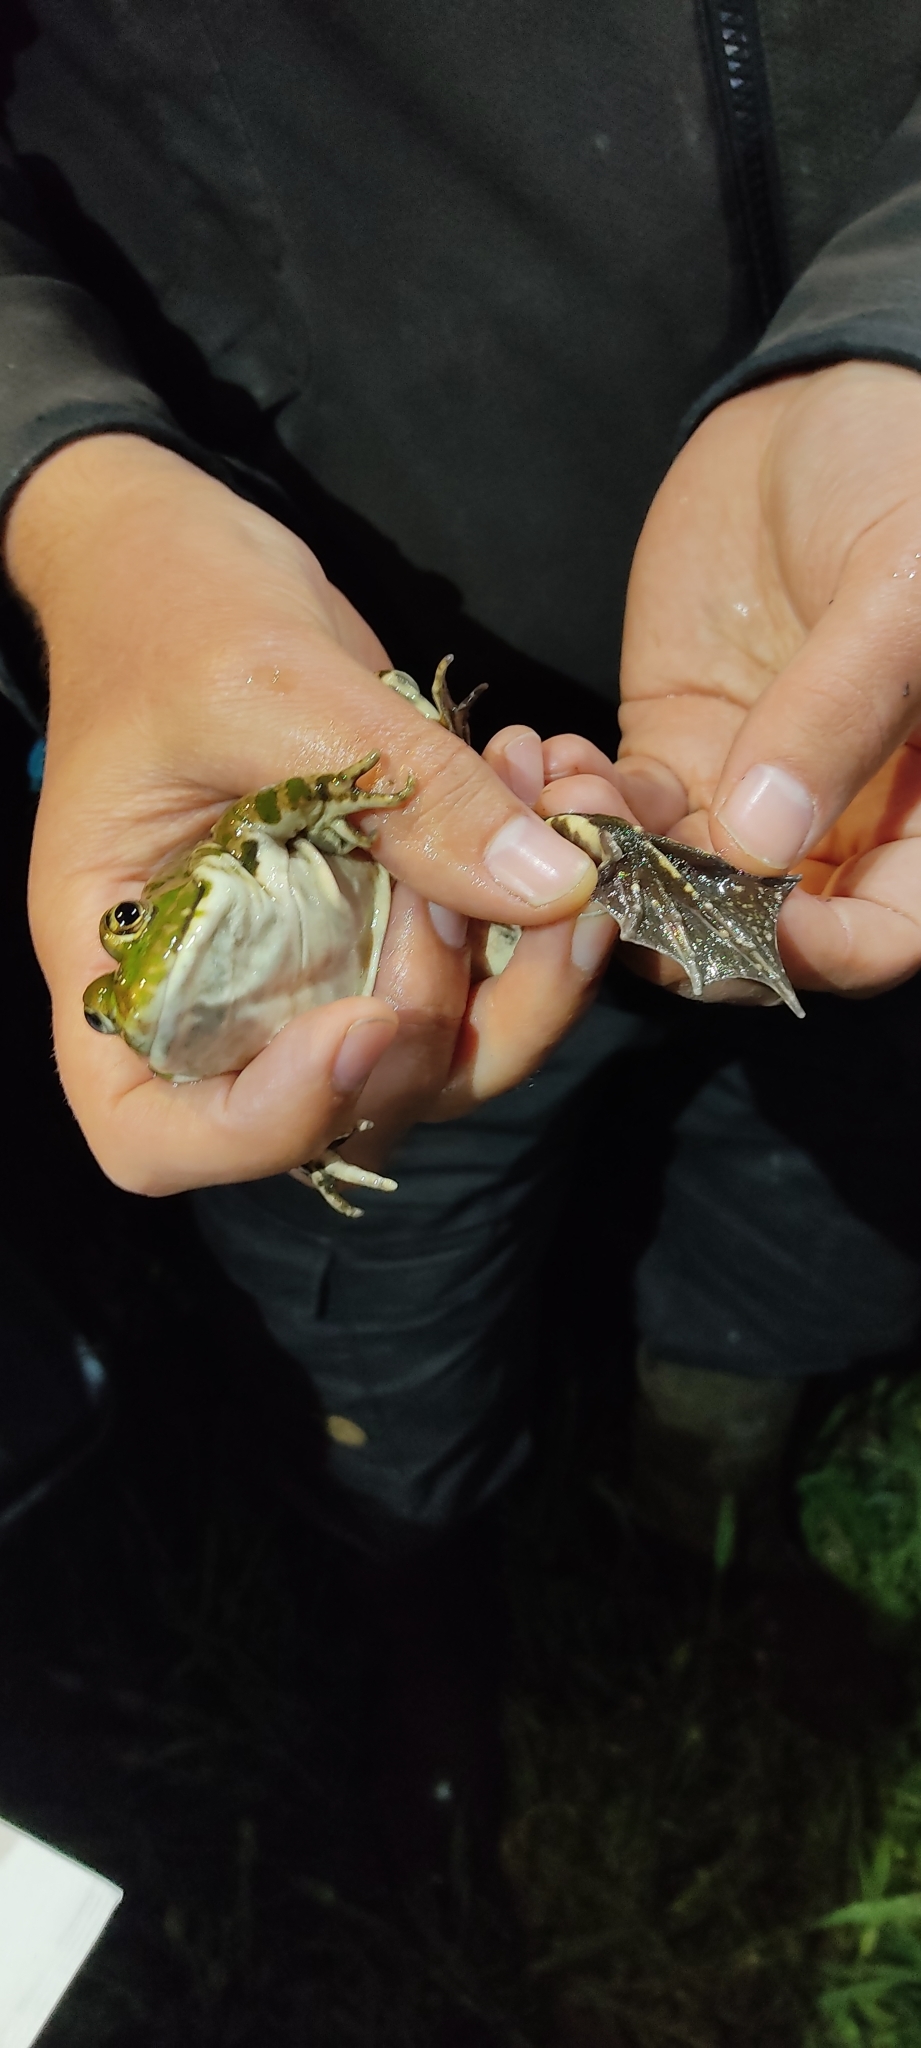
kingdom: Animalia
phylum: Chordata
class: Amphibia
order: Anura
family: Ranidae
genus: Pelophylax
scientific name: Pelophylax ridibundus
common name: Marsh frog
